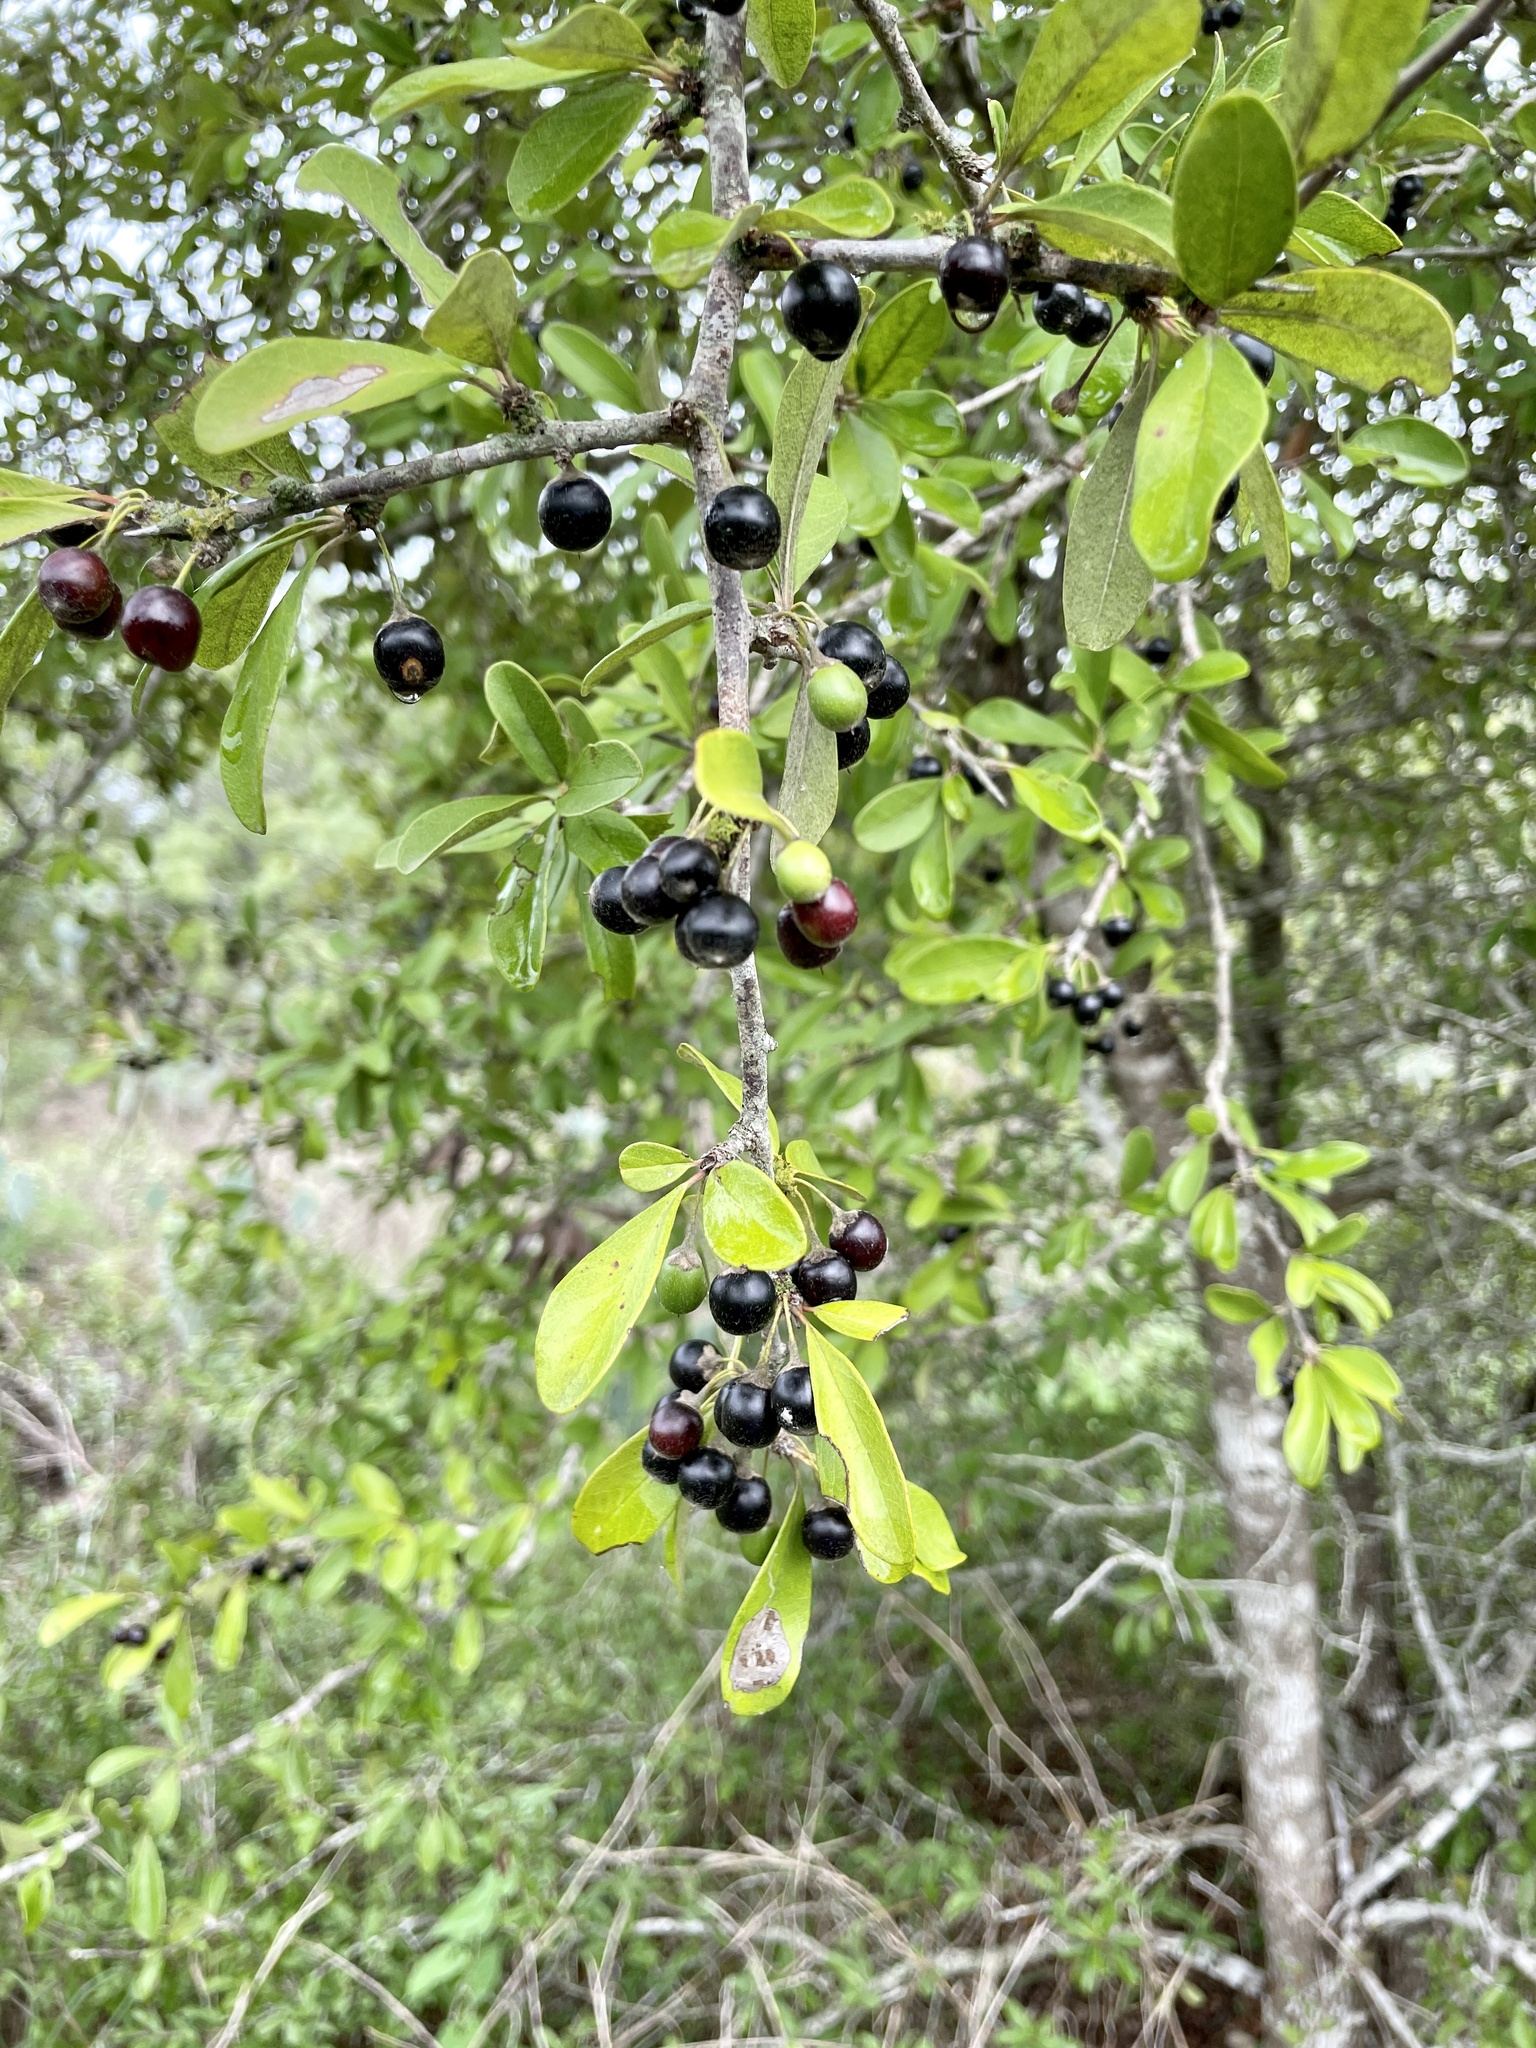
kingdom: Plantae
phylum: Tracheophyta
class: Magnoliopsida
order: Ericales
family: Sapotaceae
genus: Sideroxylon
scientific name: Sideroxylon lanuginosum
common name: Chittamwood
